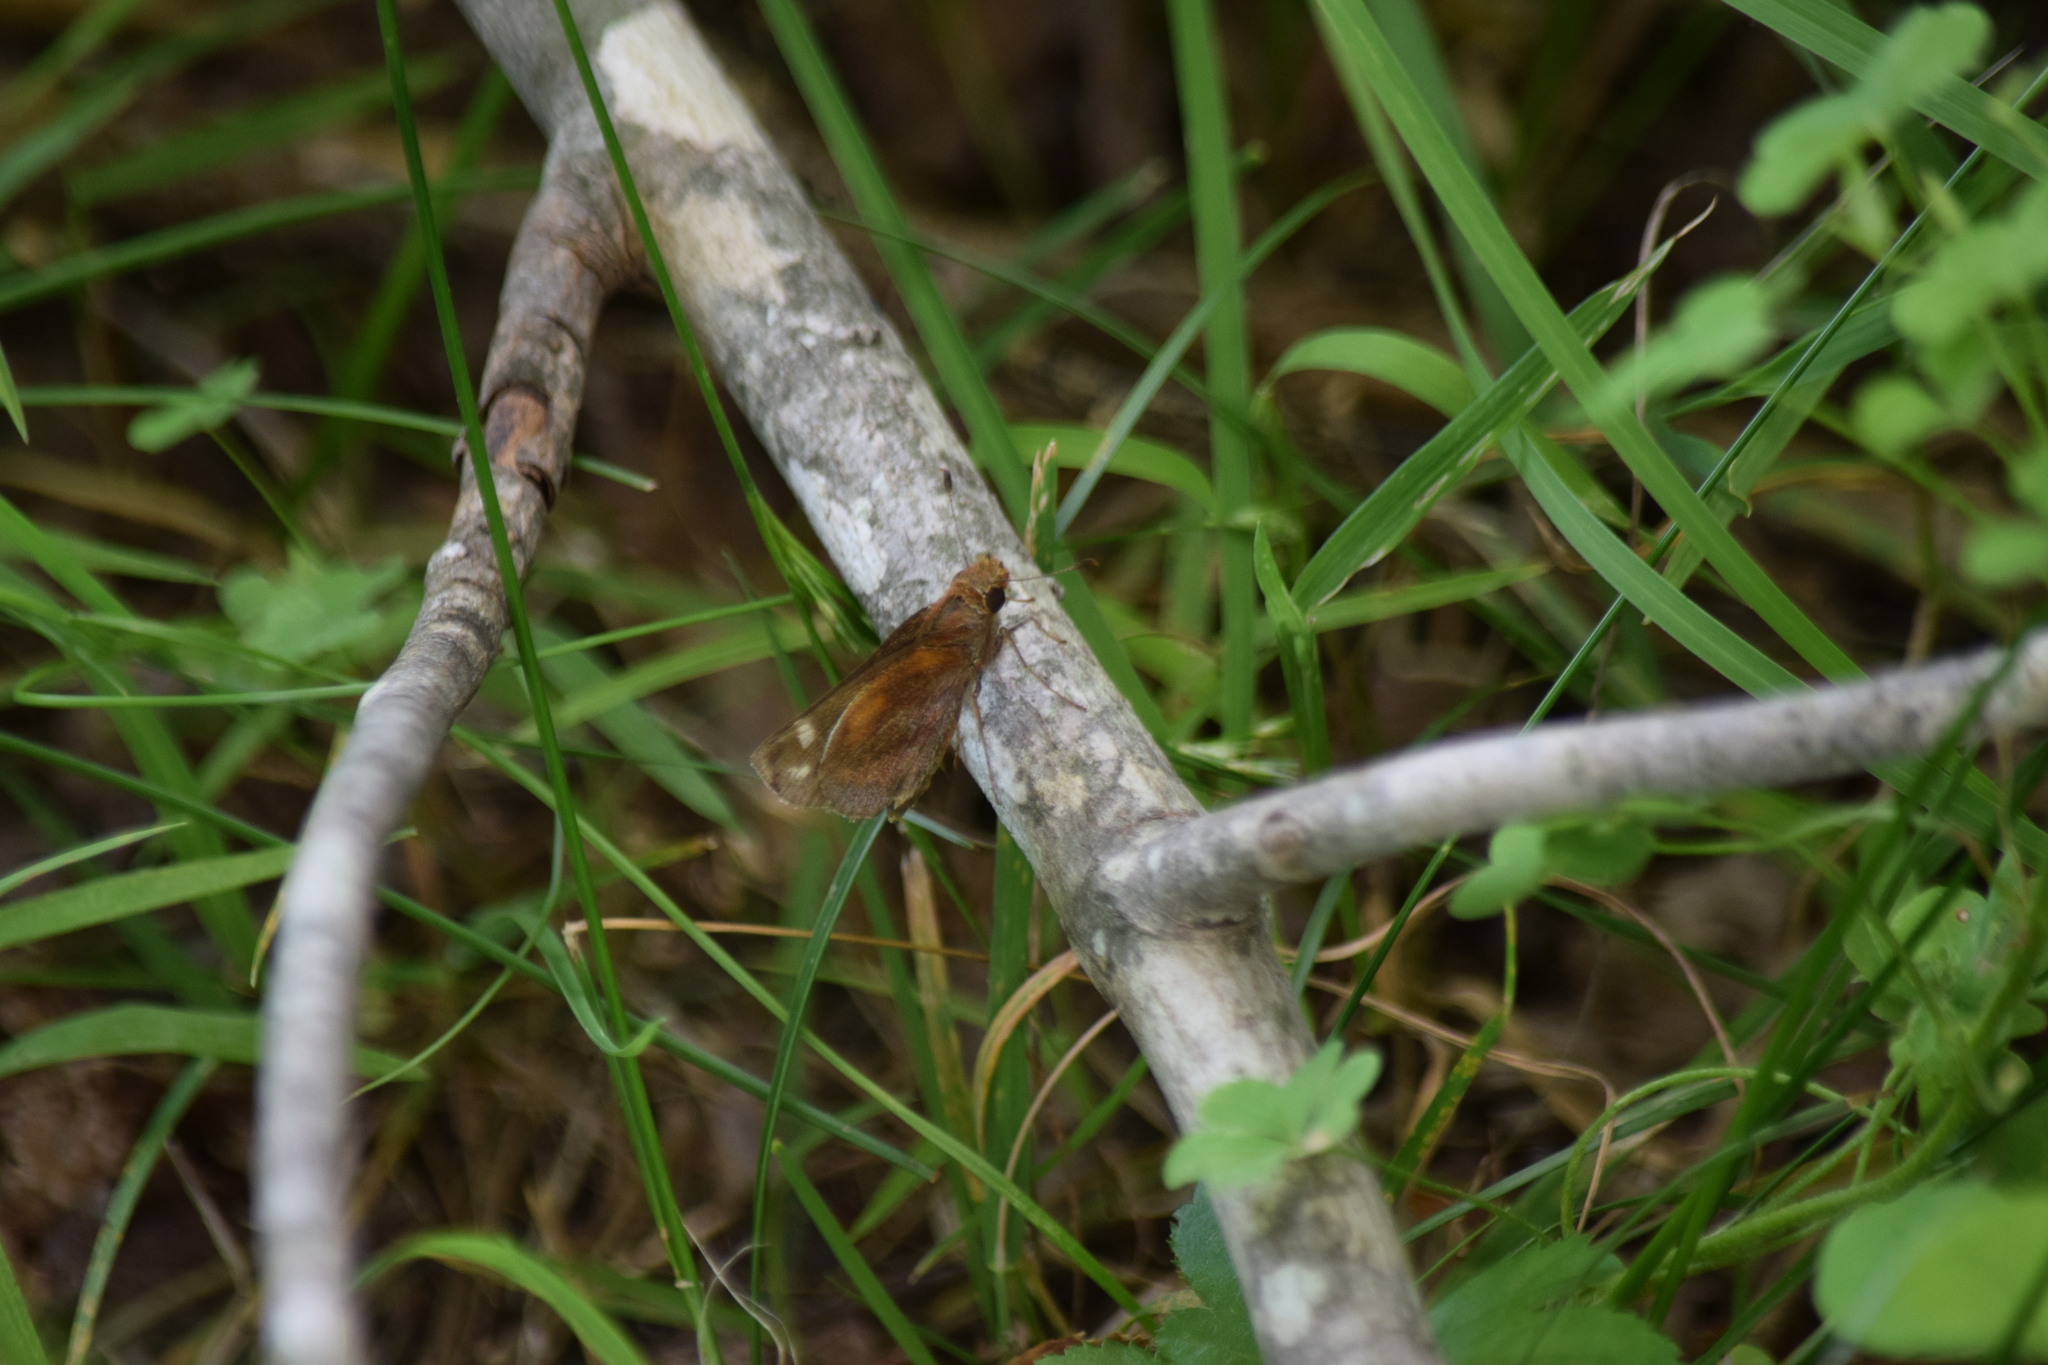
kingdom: Animalia
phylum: Arthropoda
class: Insecta
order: Lepidoptera
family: Hesperiidae
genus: Lon
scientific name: Lon zabulon
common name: Zabulon skipper
